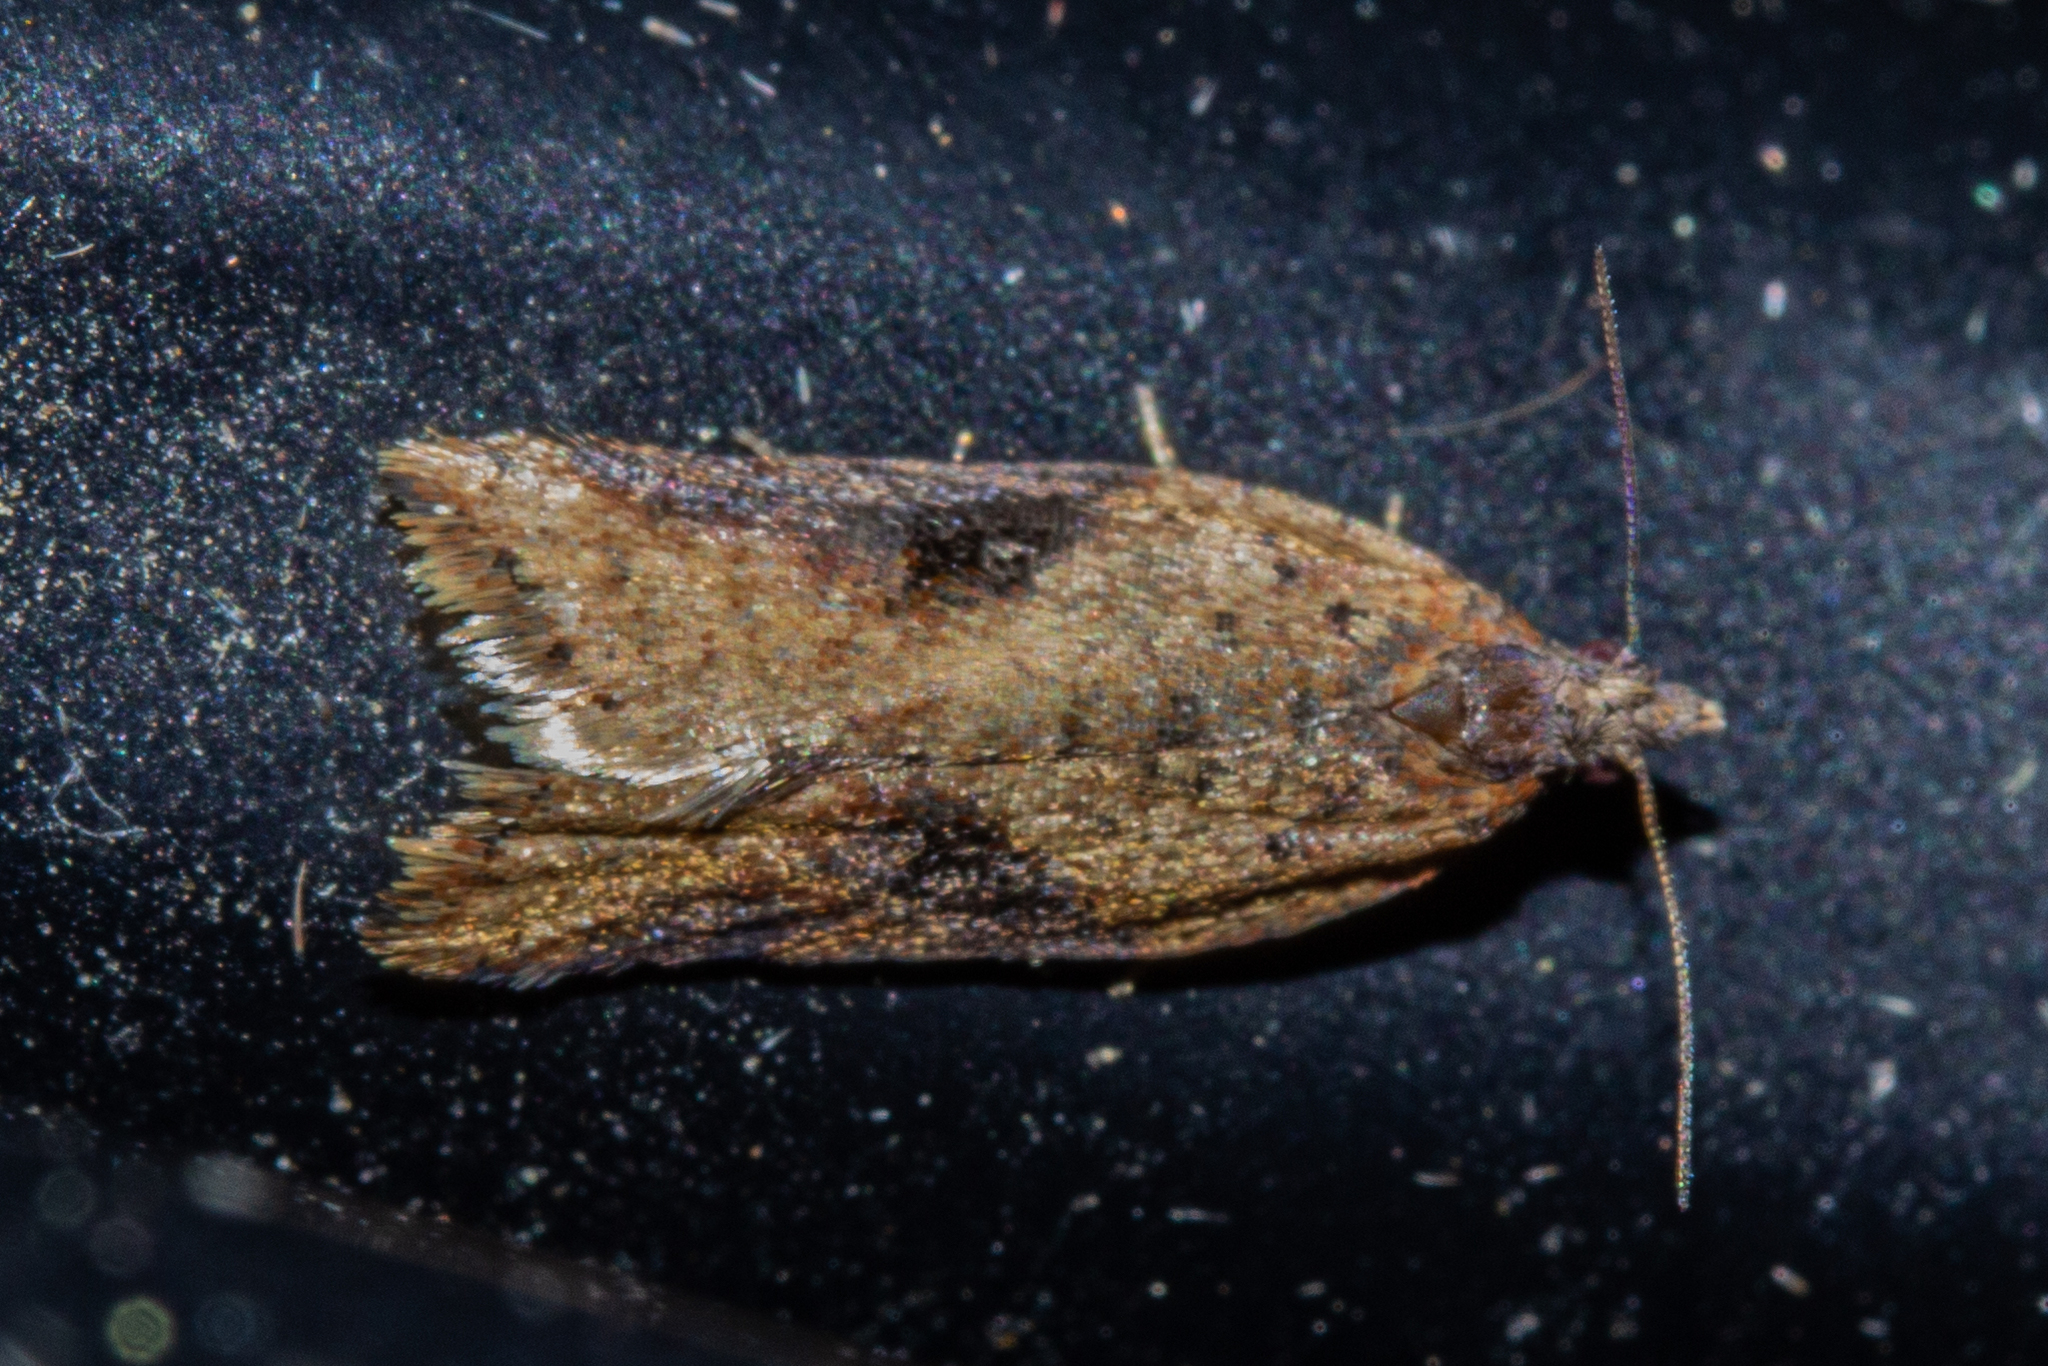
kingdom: Animalia
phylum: Arthropoda
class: Insecta
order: Lepidoptera
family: Tortricidae
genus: Capua
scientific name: Capua semiferana
